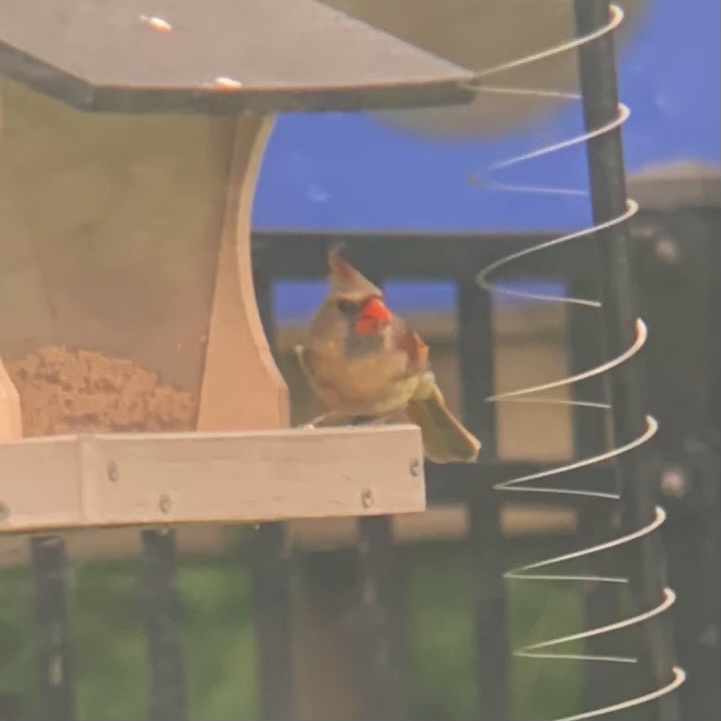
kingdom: Animalia
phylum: Chordata
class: Aves
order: Passeriformes
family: Cardinalidae
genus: Cardinalis
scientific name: Cardinalis cardinalis
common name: Northern cardinal
